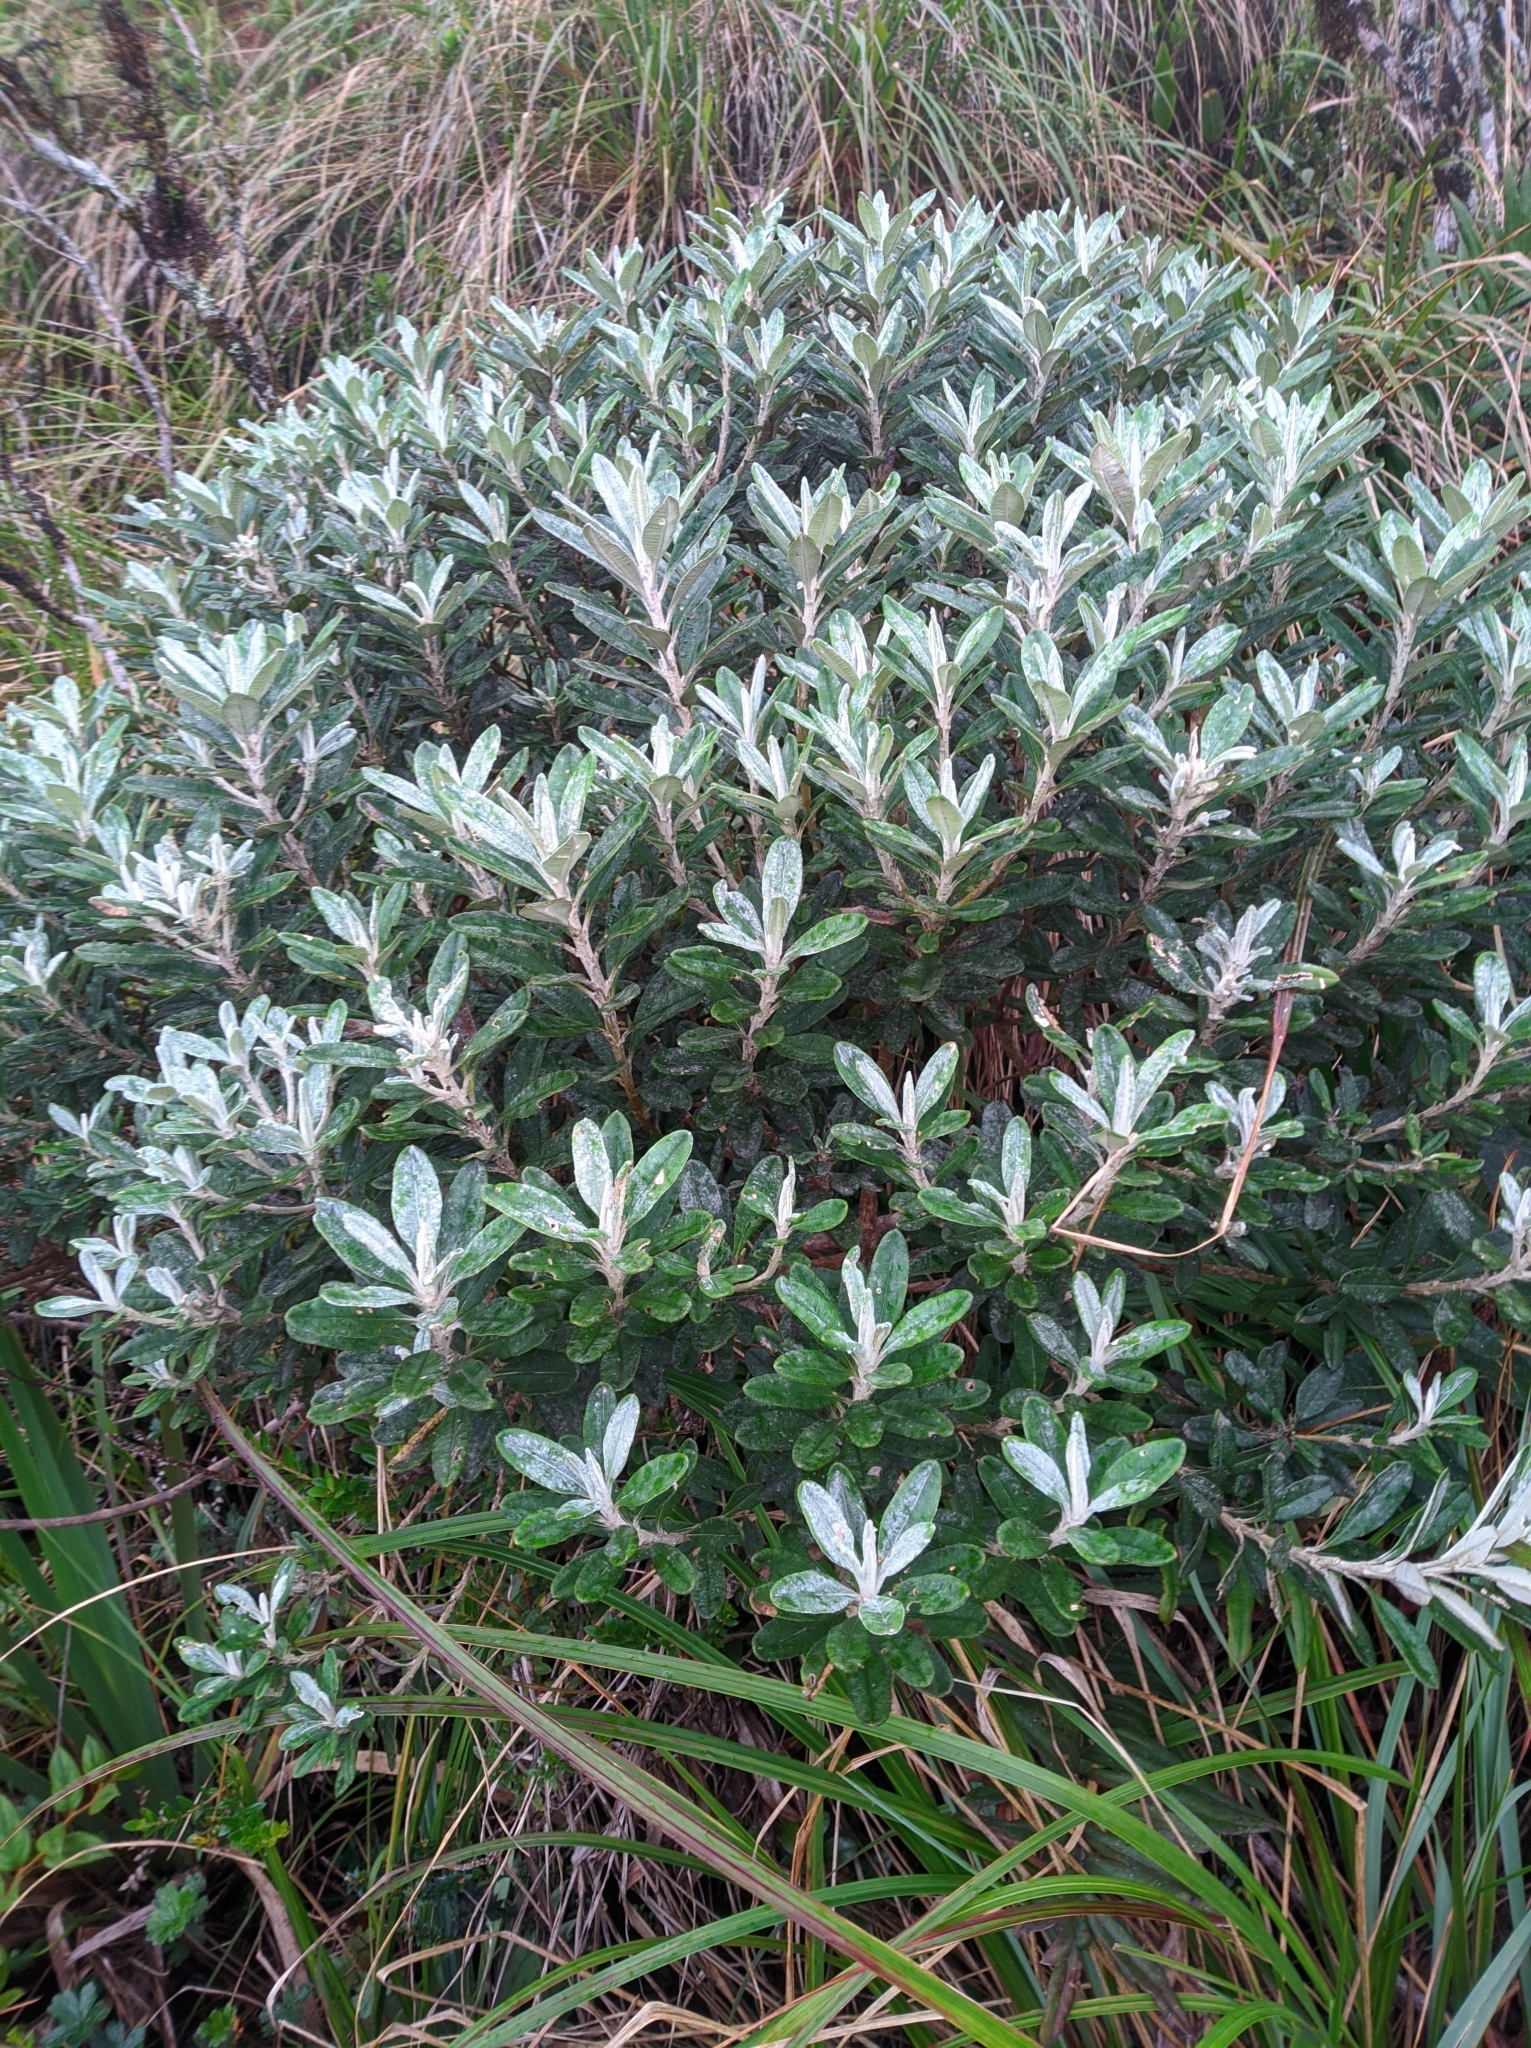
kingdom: Plantae
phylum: Tracheophyta
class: Magnoliopsida
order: Asterales
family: Asteraceae
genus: Espeletia
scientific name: Espeletia griffinii
